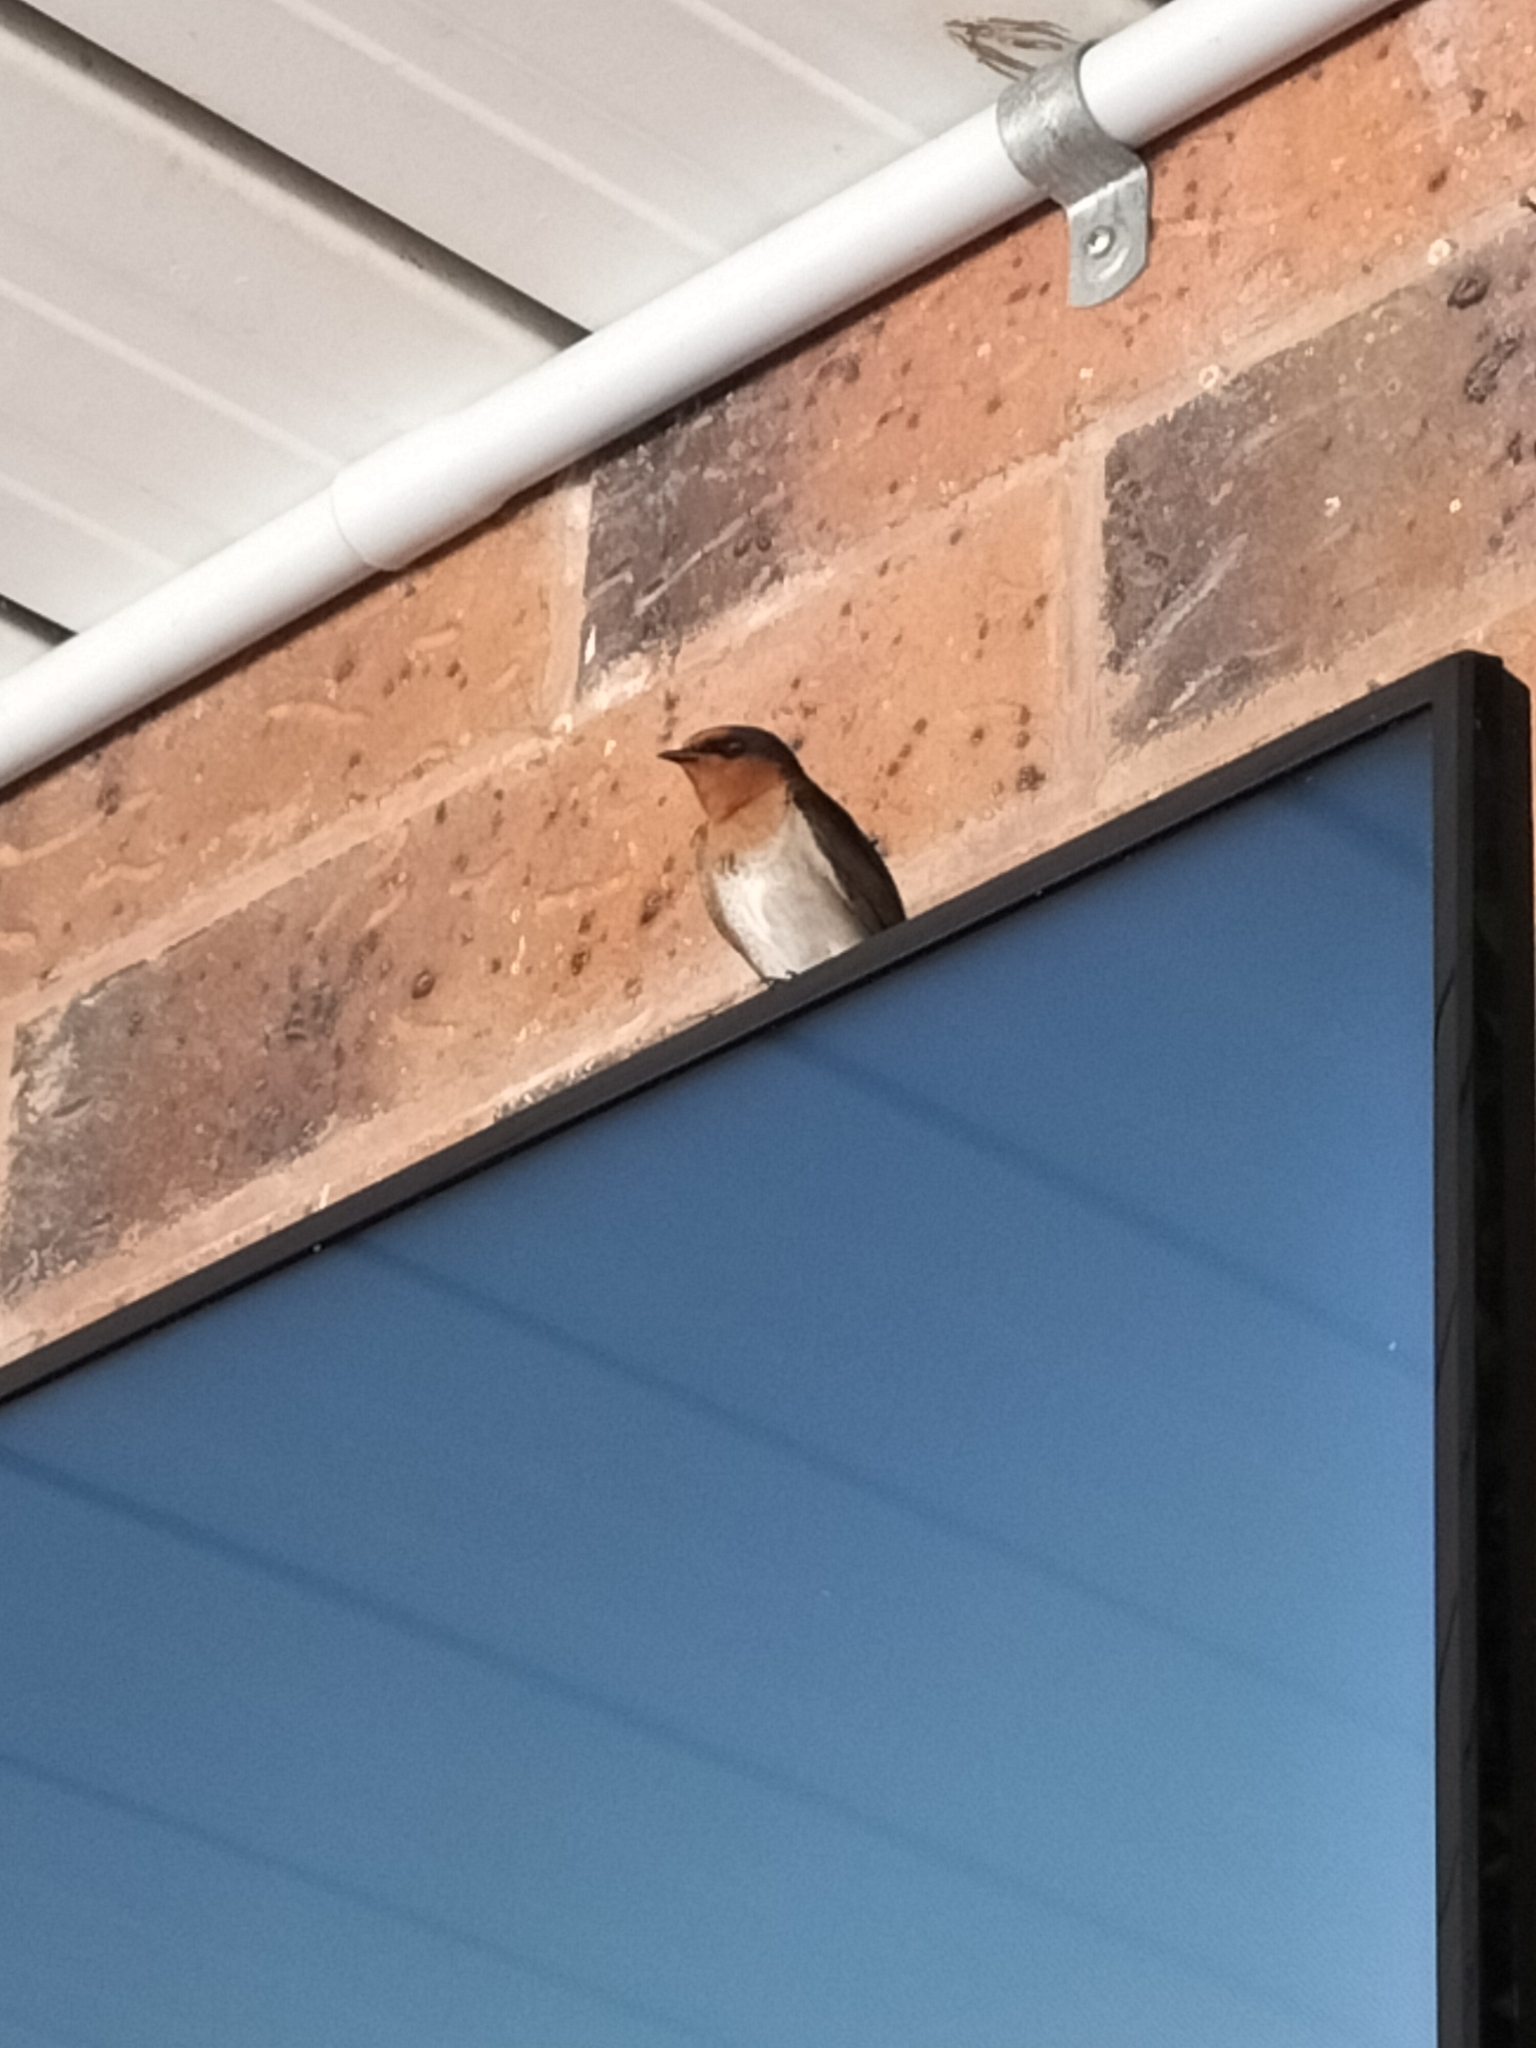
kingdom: Animalia
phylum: Chordata
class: Aves
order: Passeriformes
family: Hirundinidae
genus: Hirundo
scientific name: Hirundo neoxena
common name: Welcome swallow
